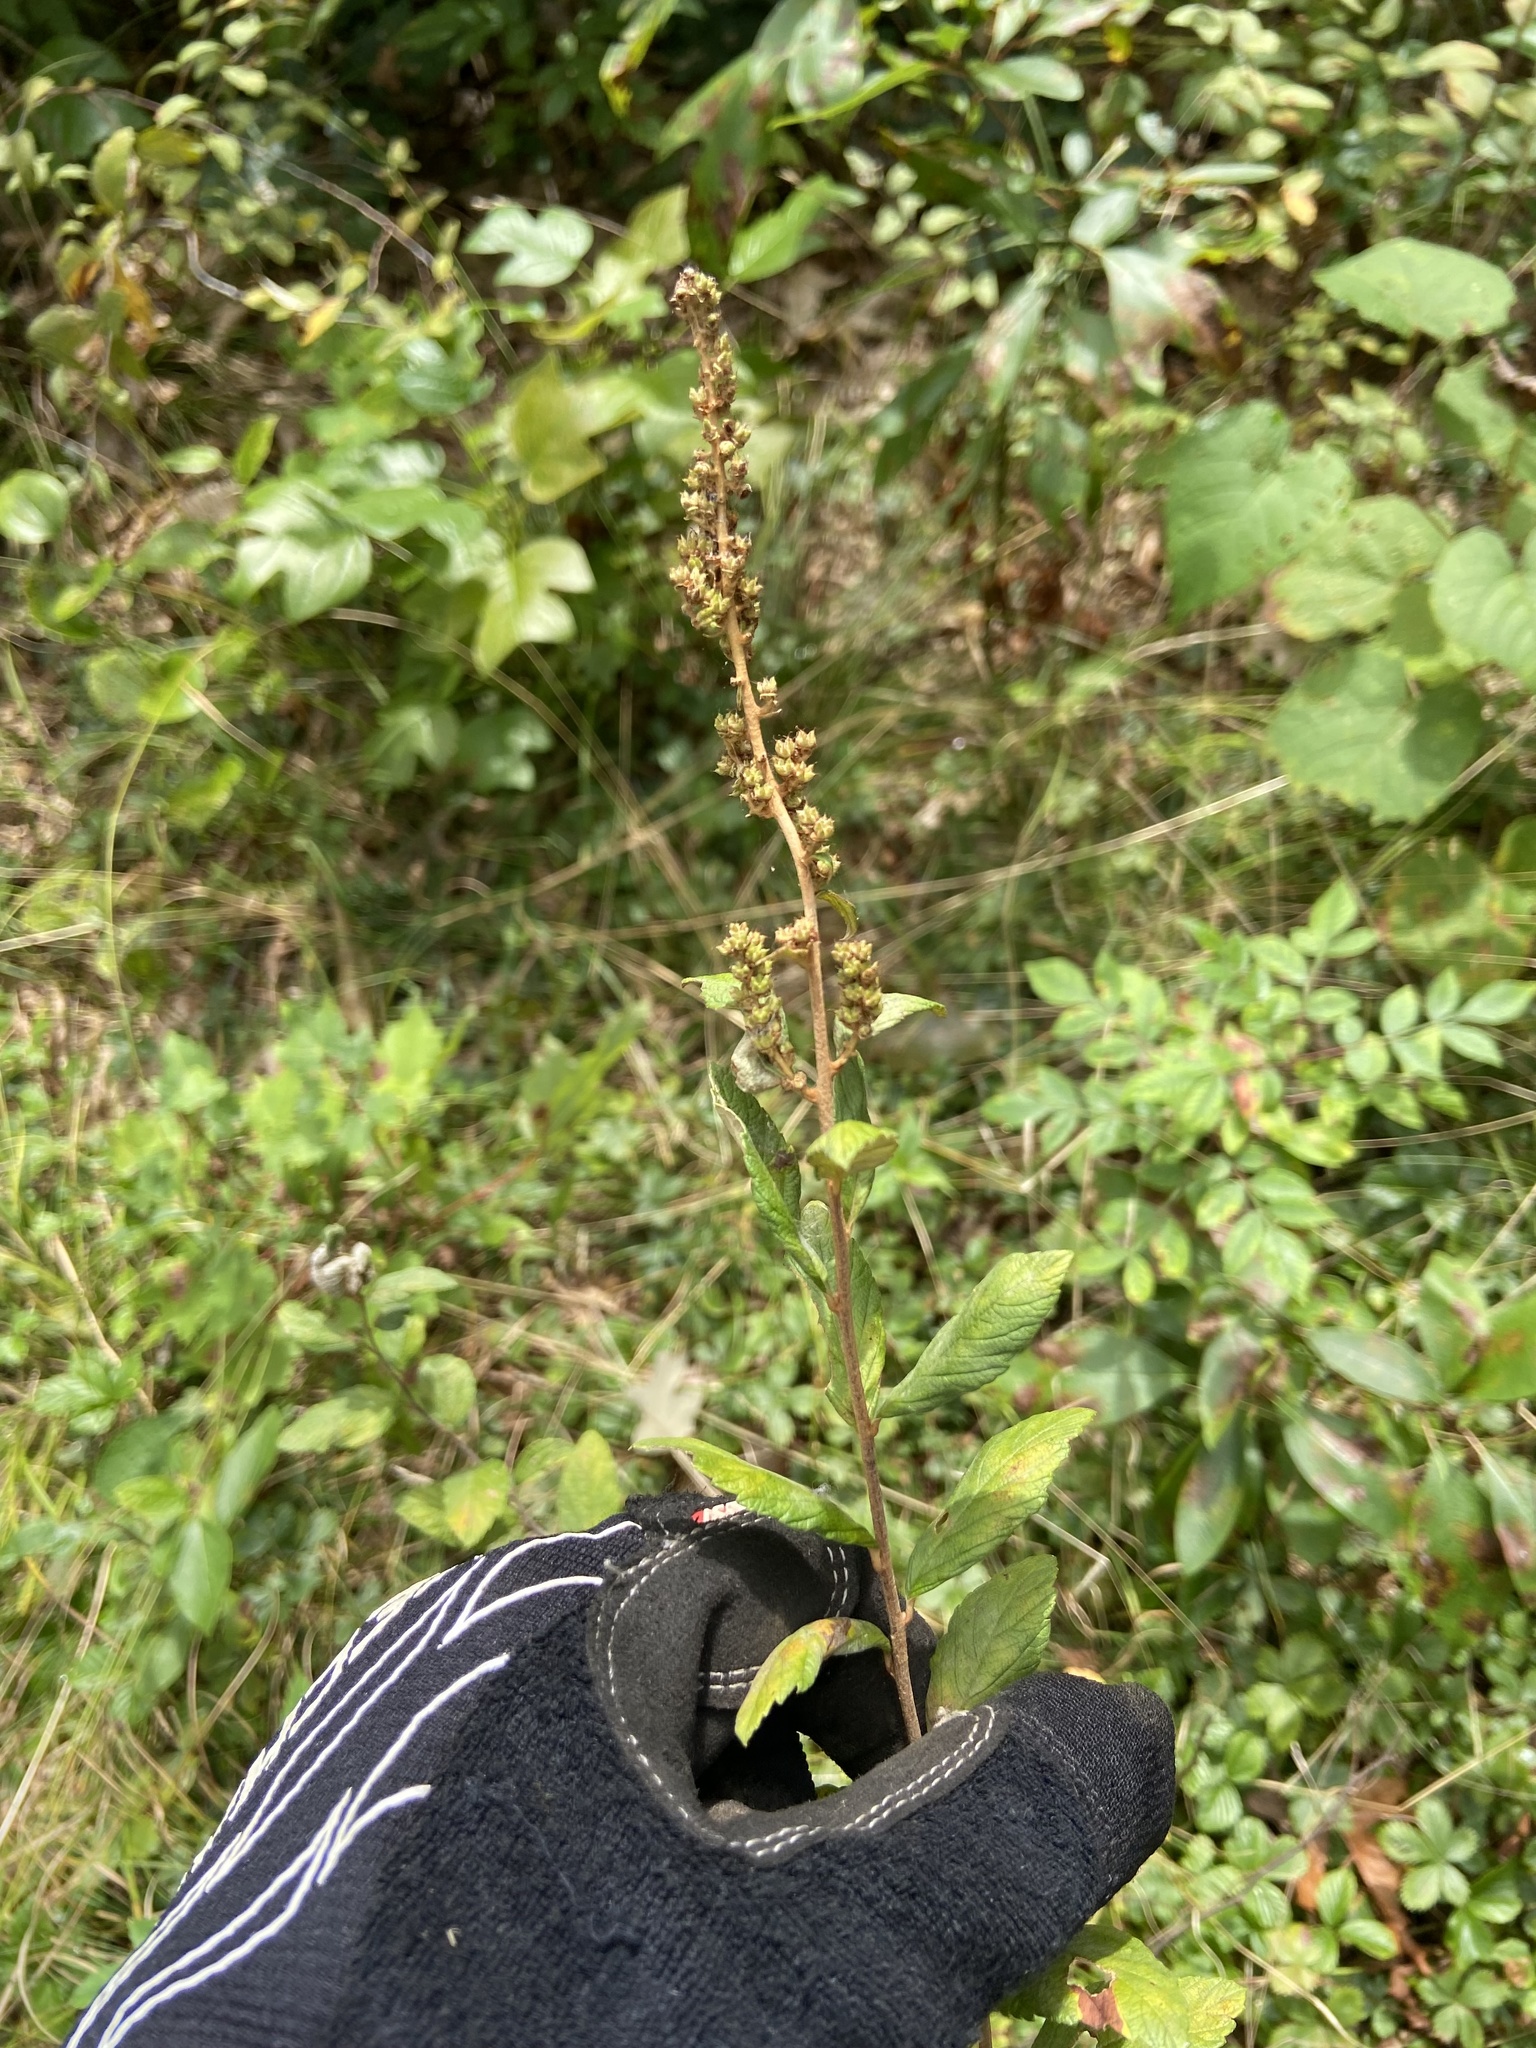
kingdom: Plantae
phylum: Tracheophyta
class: Magnoliopsida
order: Rosales
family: Rosaceae
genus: Spiraea
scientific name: Spiraea tomentosa
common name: Hardhack
